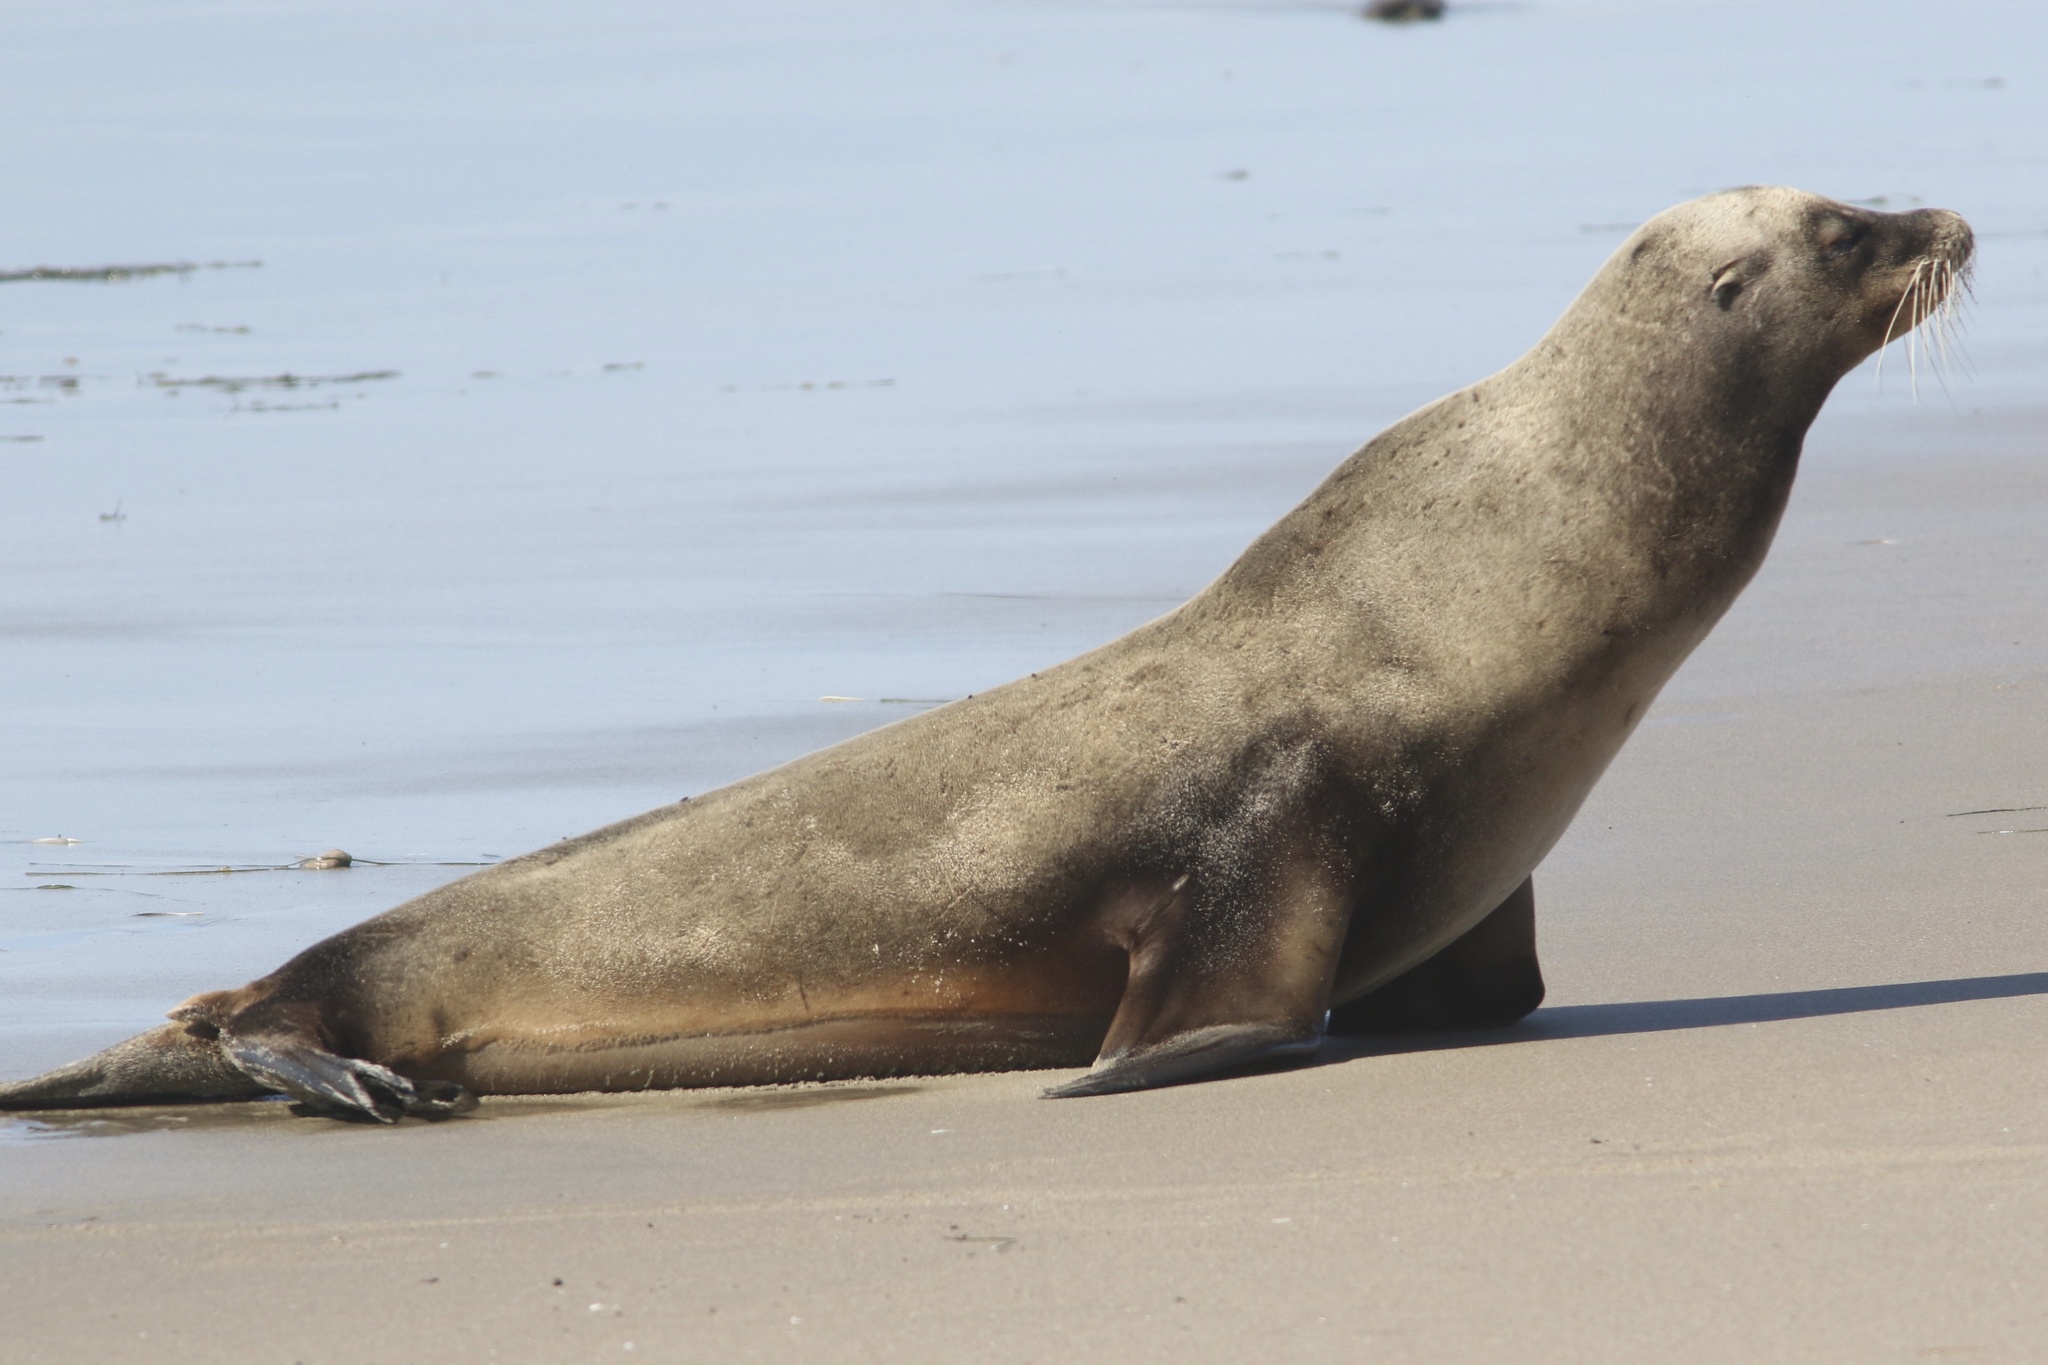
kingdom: Animalia
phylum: Chordata
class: Mammalia
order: Carnivora
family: Otariidae
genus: Zalophus
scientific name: Zalophus californianus
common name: California sea lion
